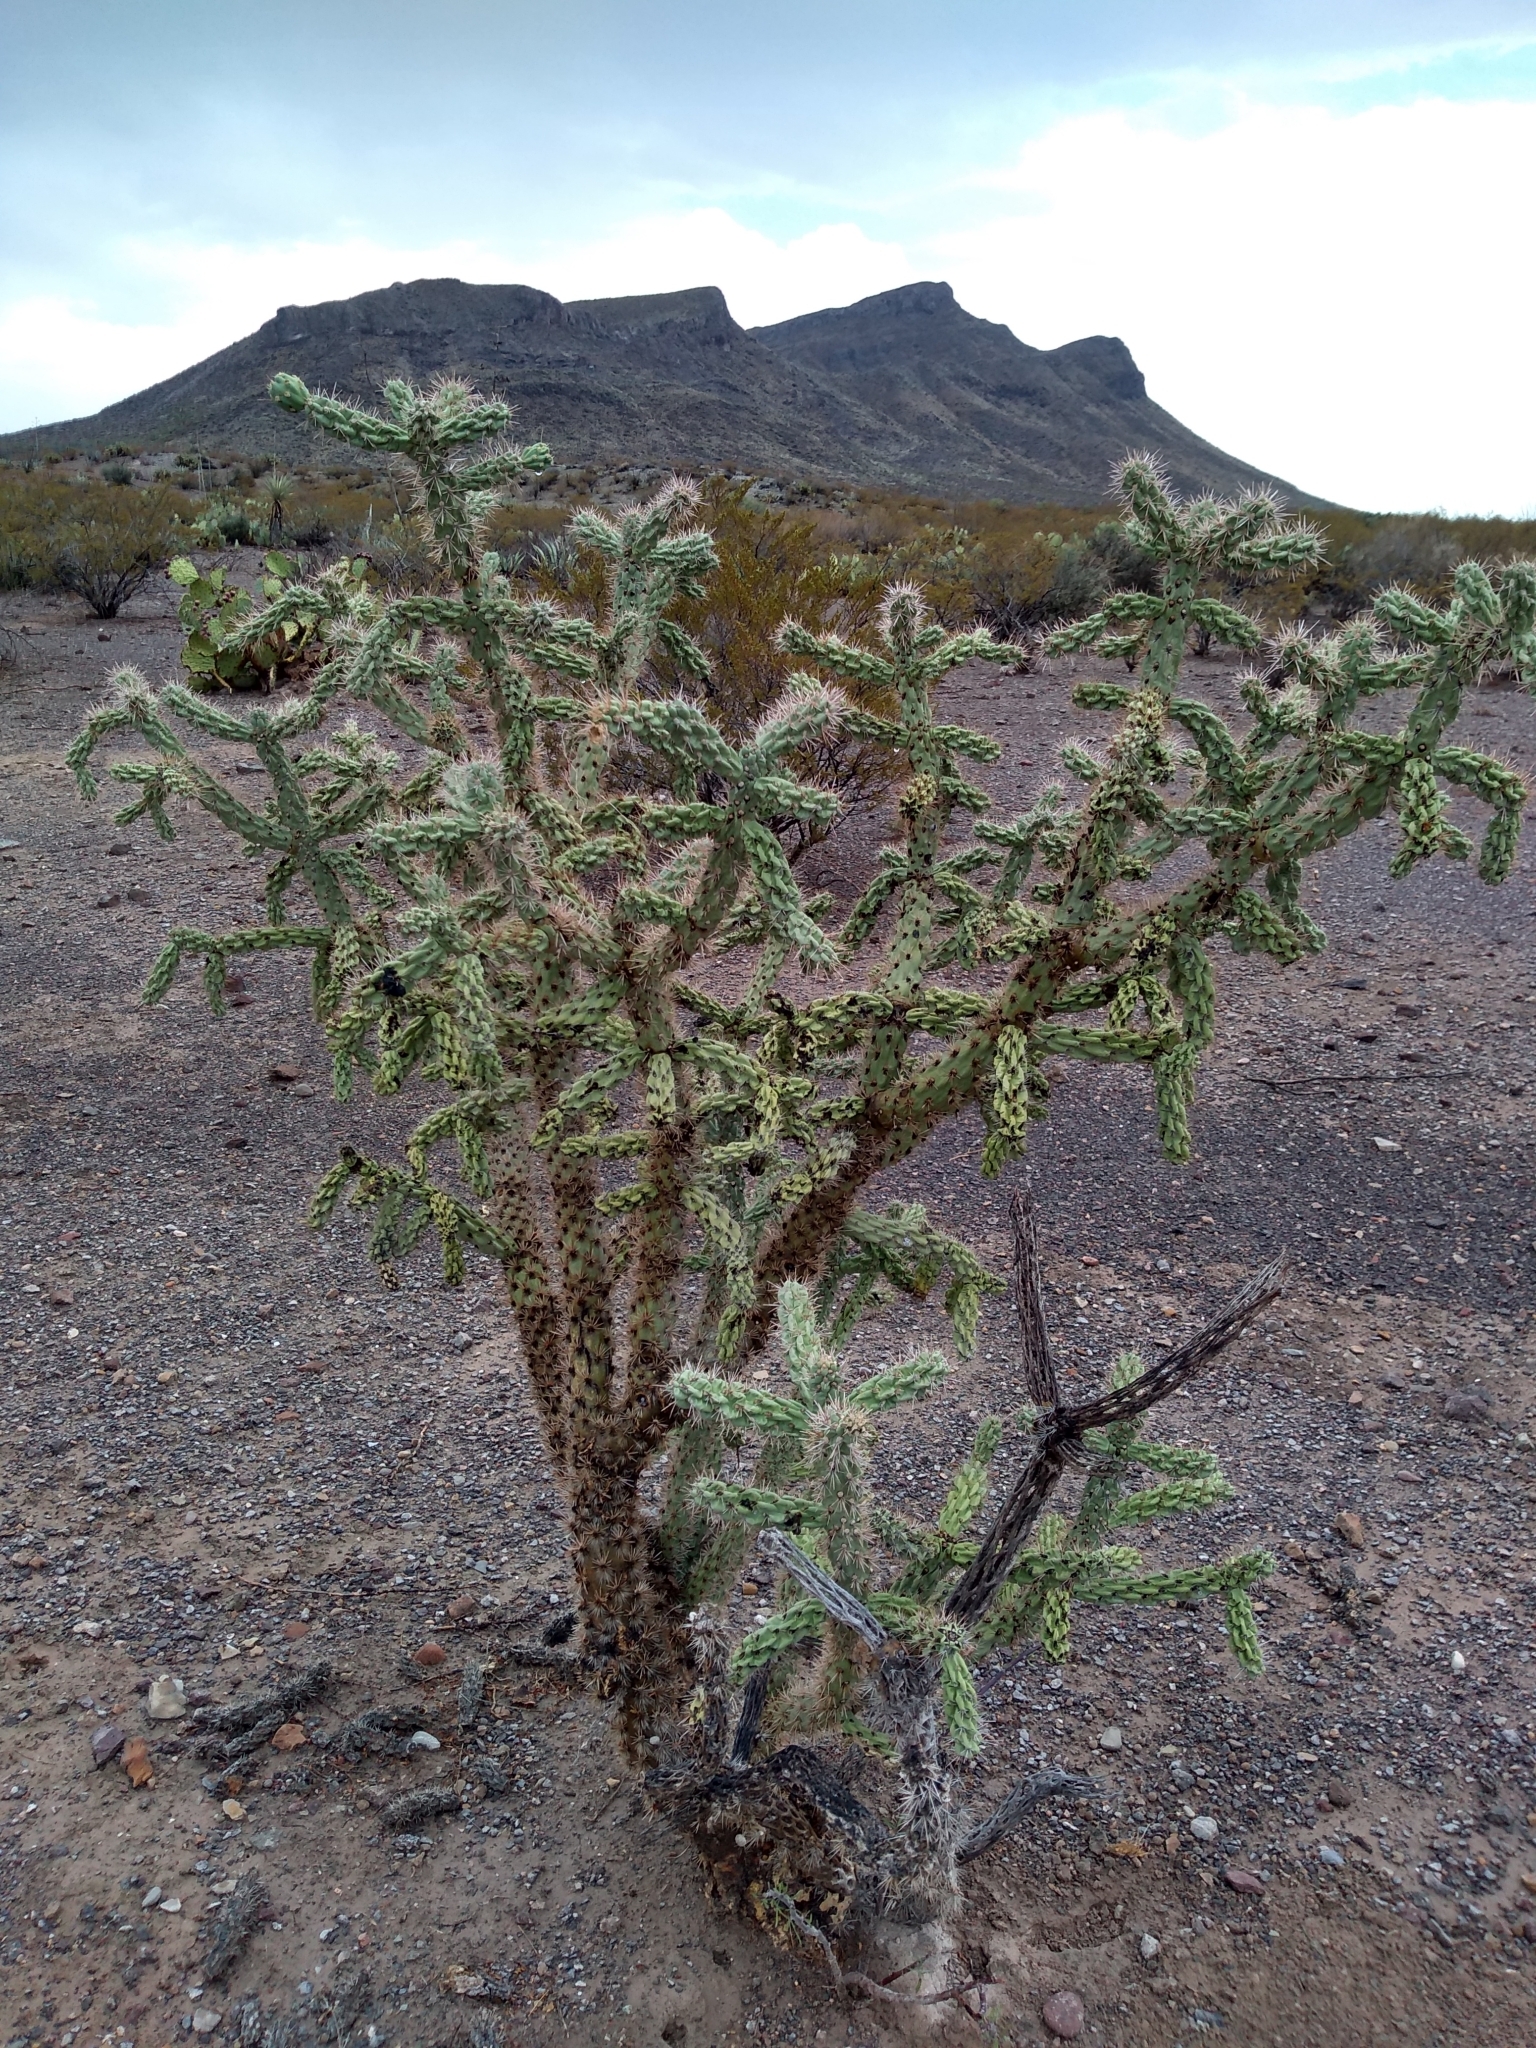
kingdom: Plantae
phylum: Tracheophyta
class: Magnoliopsida
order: Caryophyllales
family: Cactaceae
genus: Cylindropuntia
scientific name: Cylindropuntia imbricata
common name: Candelabrum cactus
